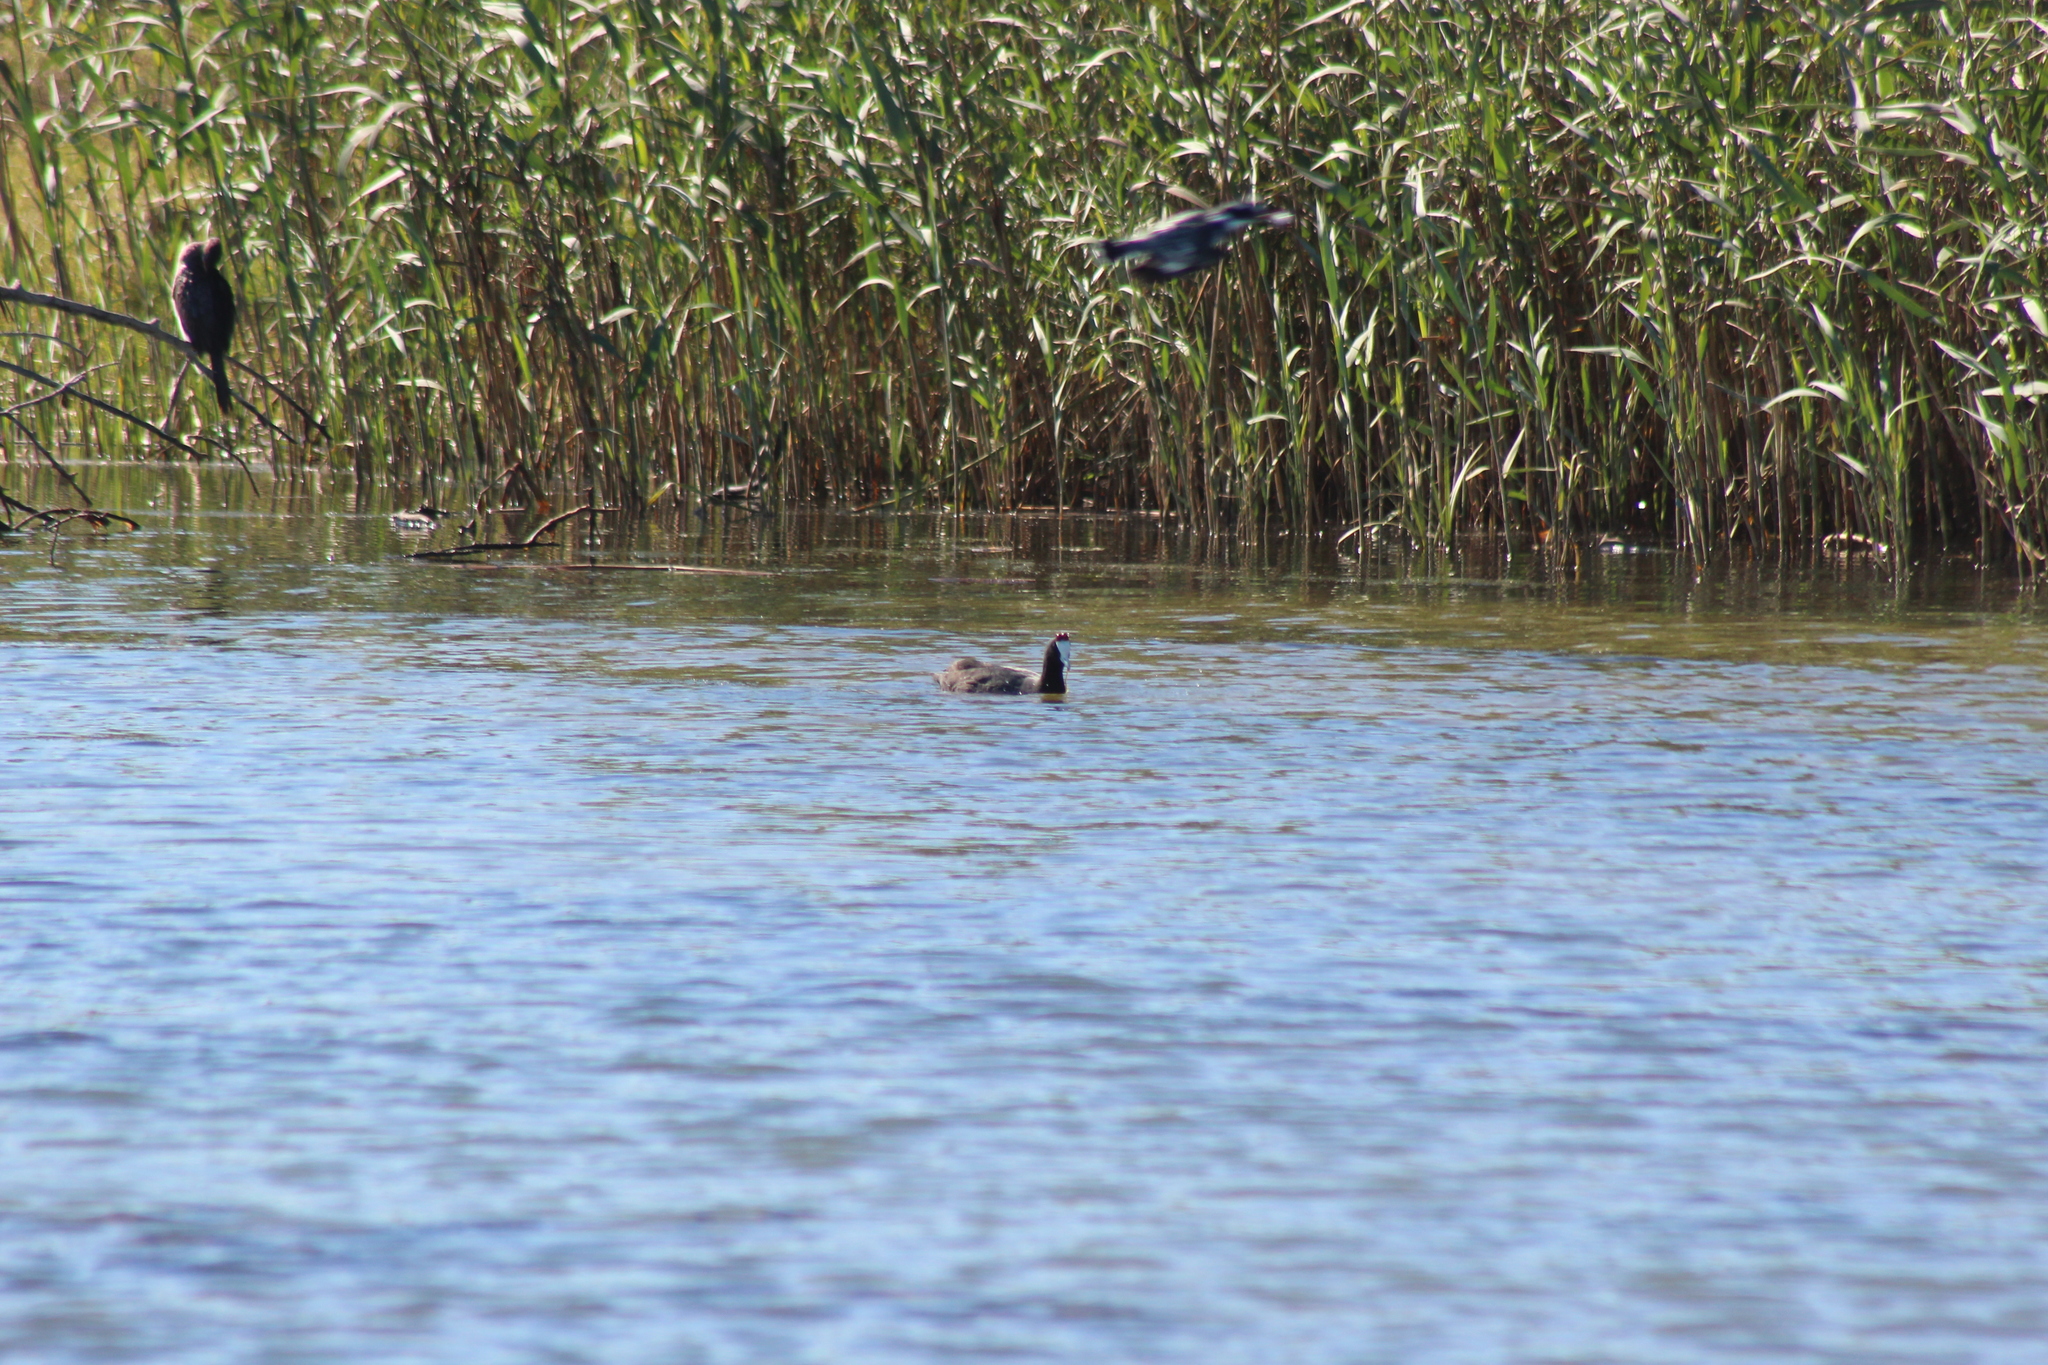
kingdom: Animalia
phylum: Chordata
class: Aves
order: Gruiformes
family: Rallidae
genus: Fulica
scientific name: Fulica cristata
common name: Red-knobbed coot
